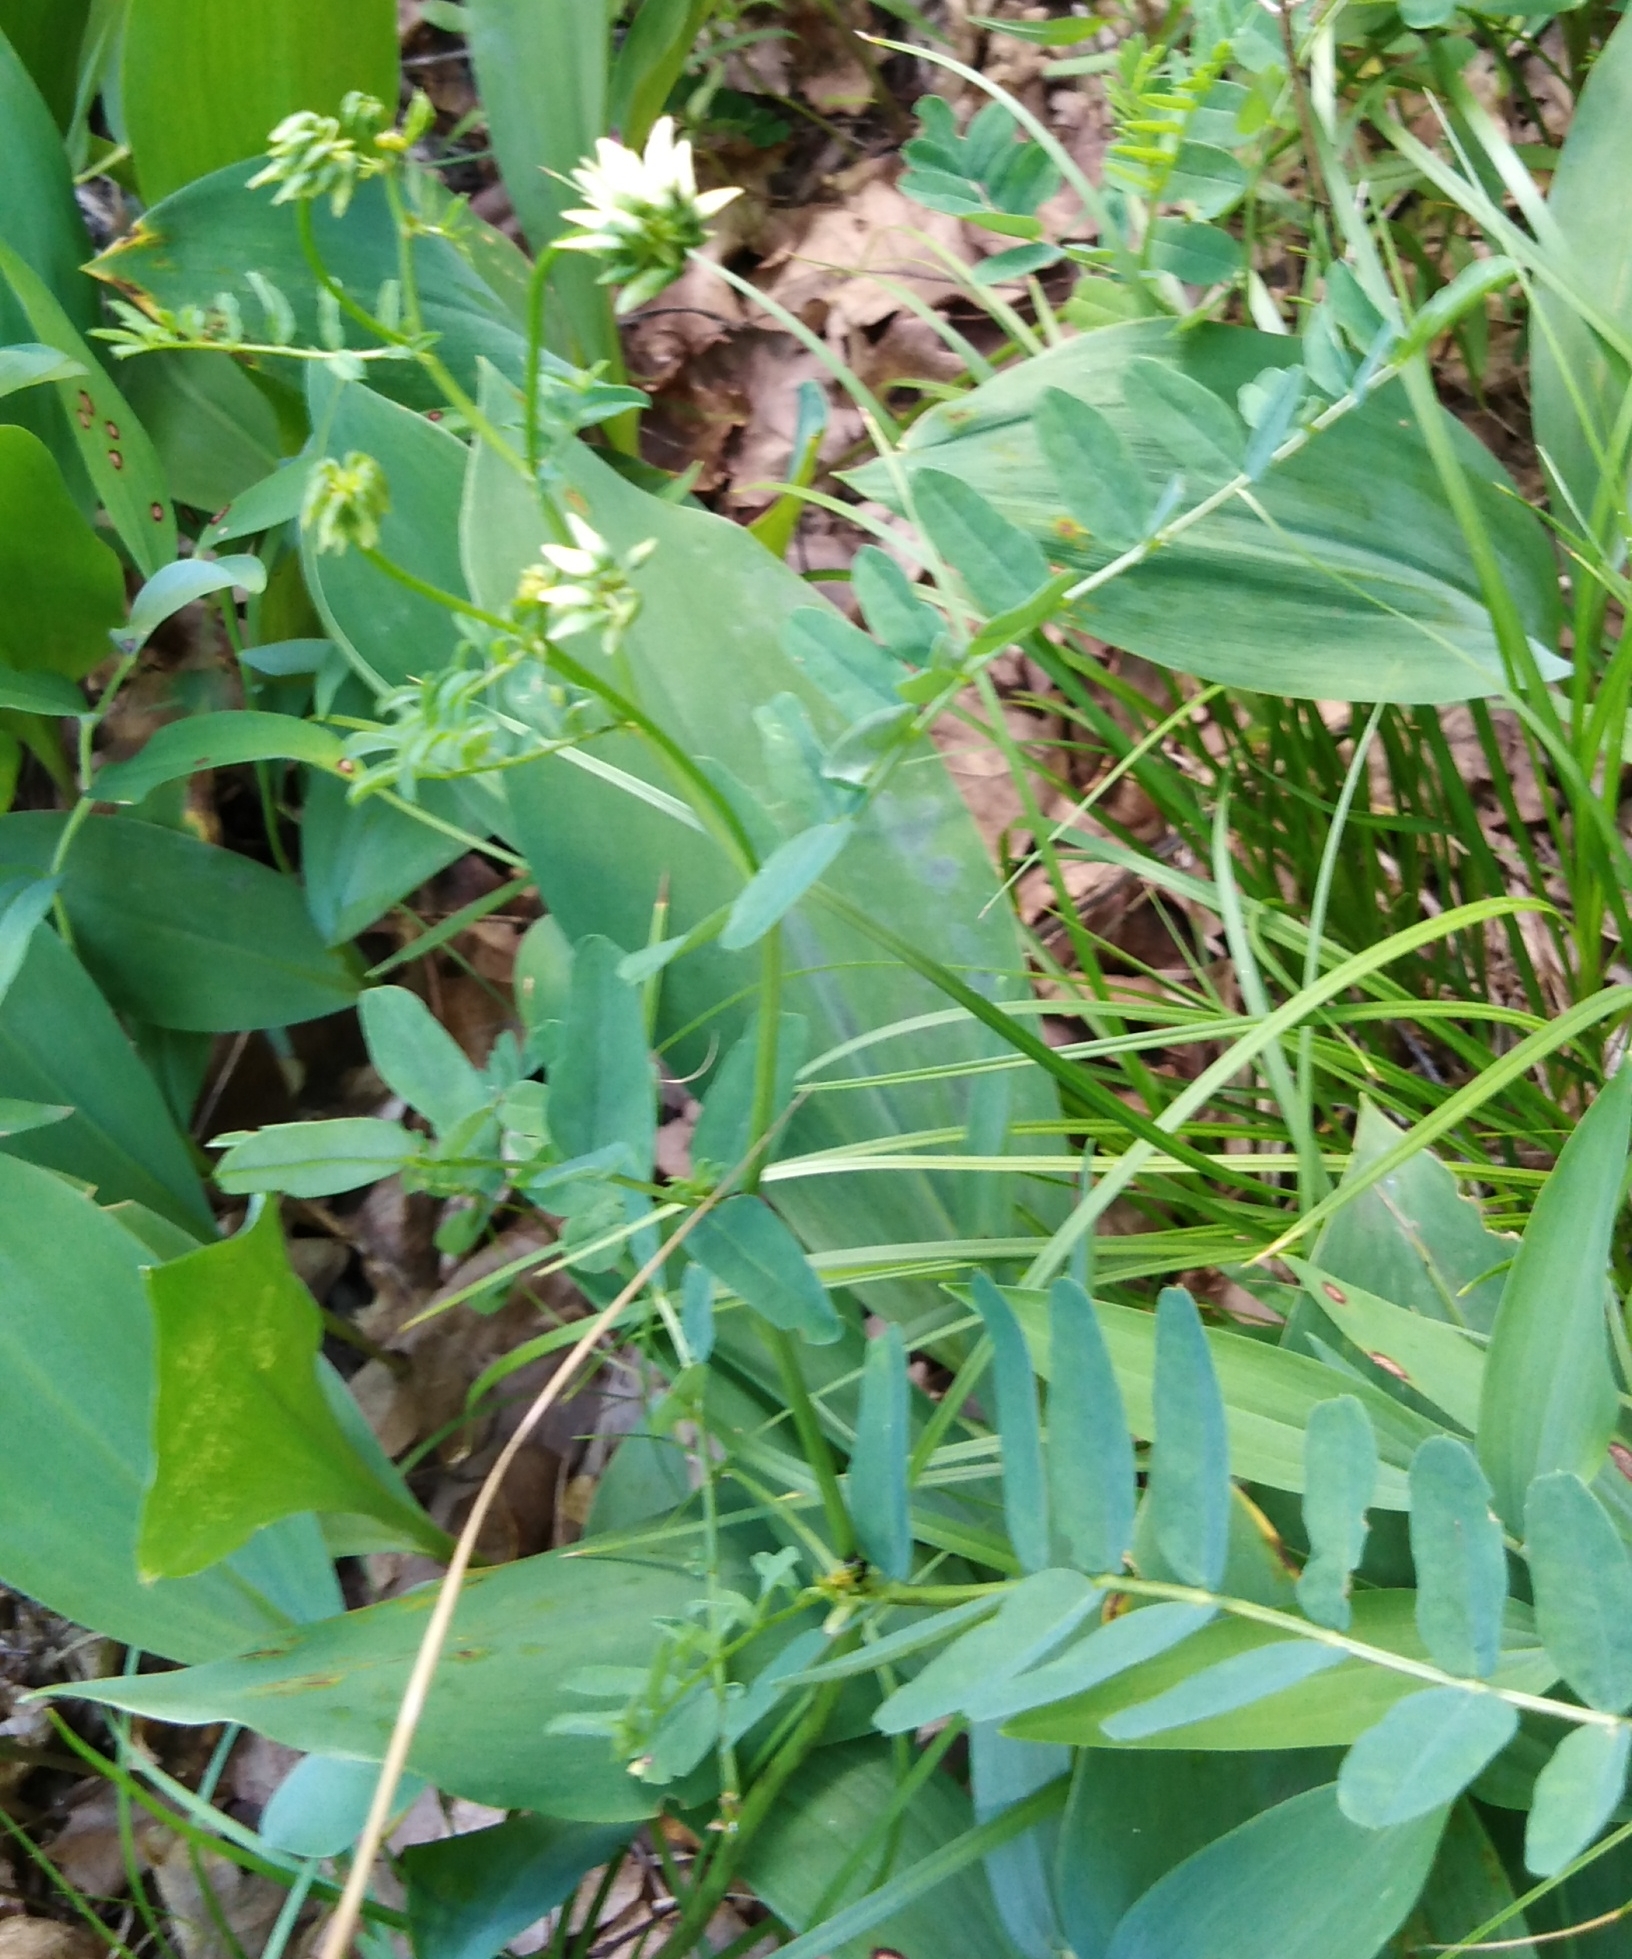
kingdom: Plantae
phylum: Tracheophyta
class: Magnoliopsida
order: Fabales
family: Fabaceae
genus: Coronilla
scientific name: Coronilla varia
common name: Crownvetch
